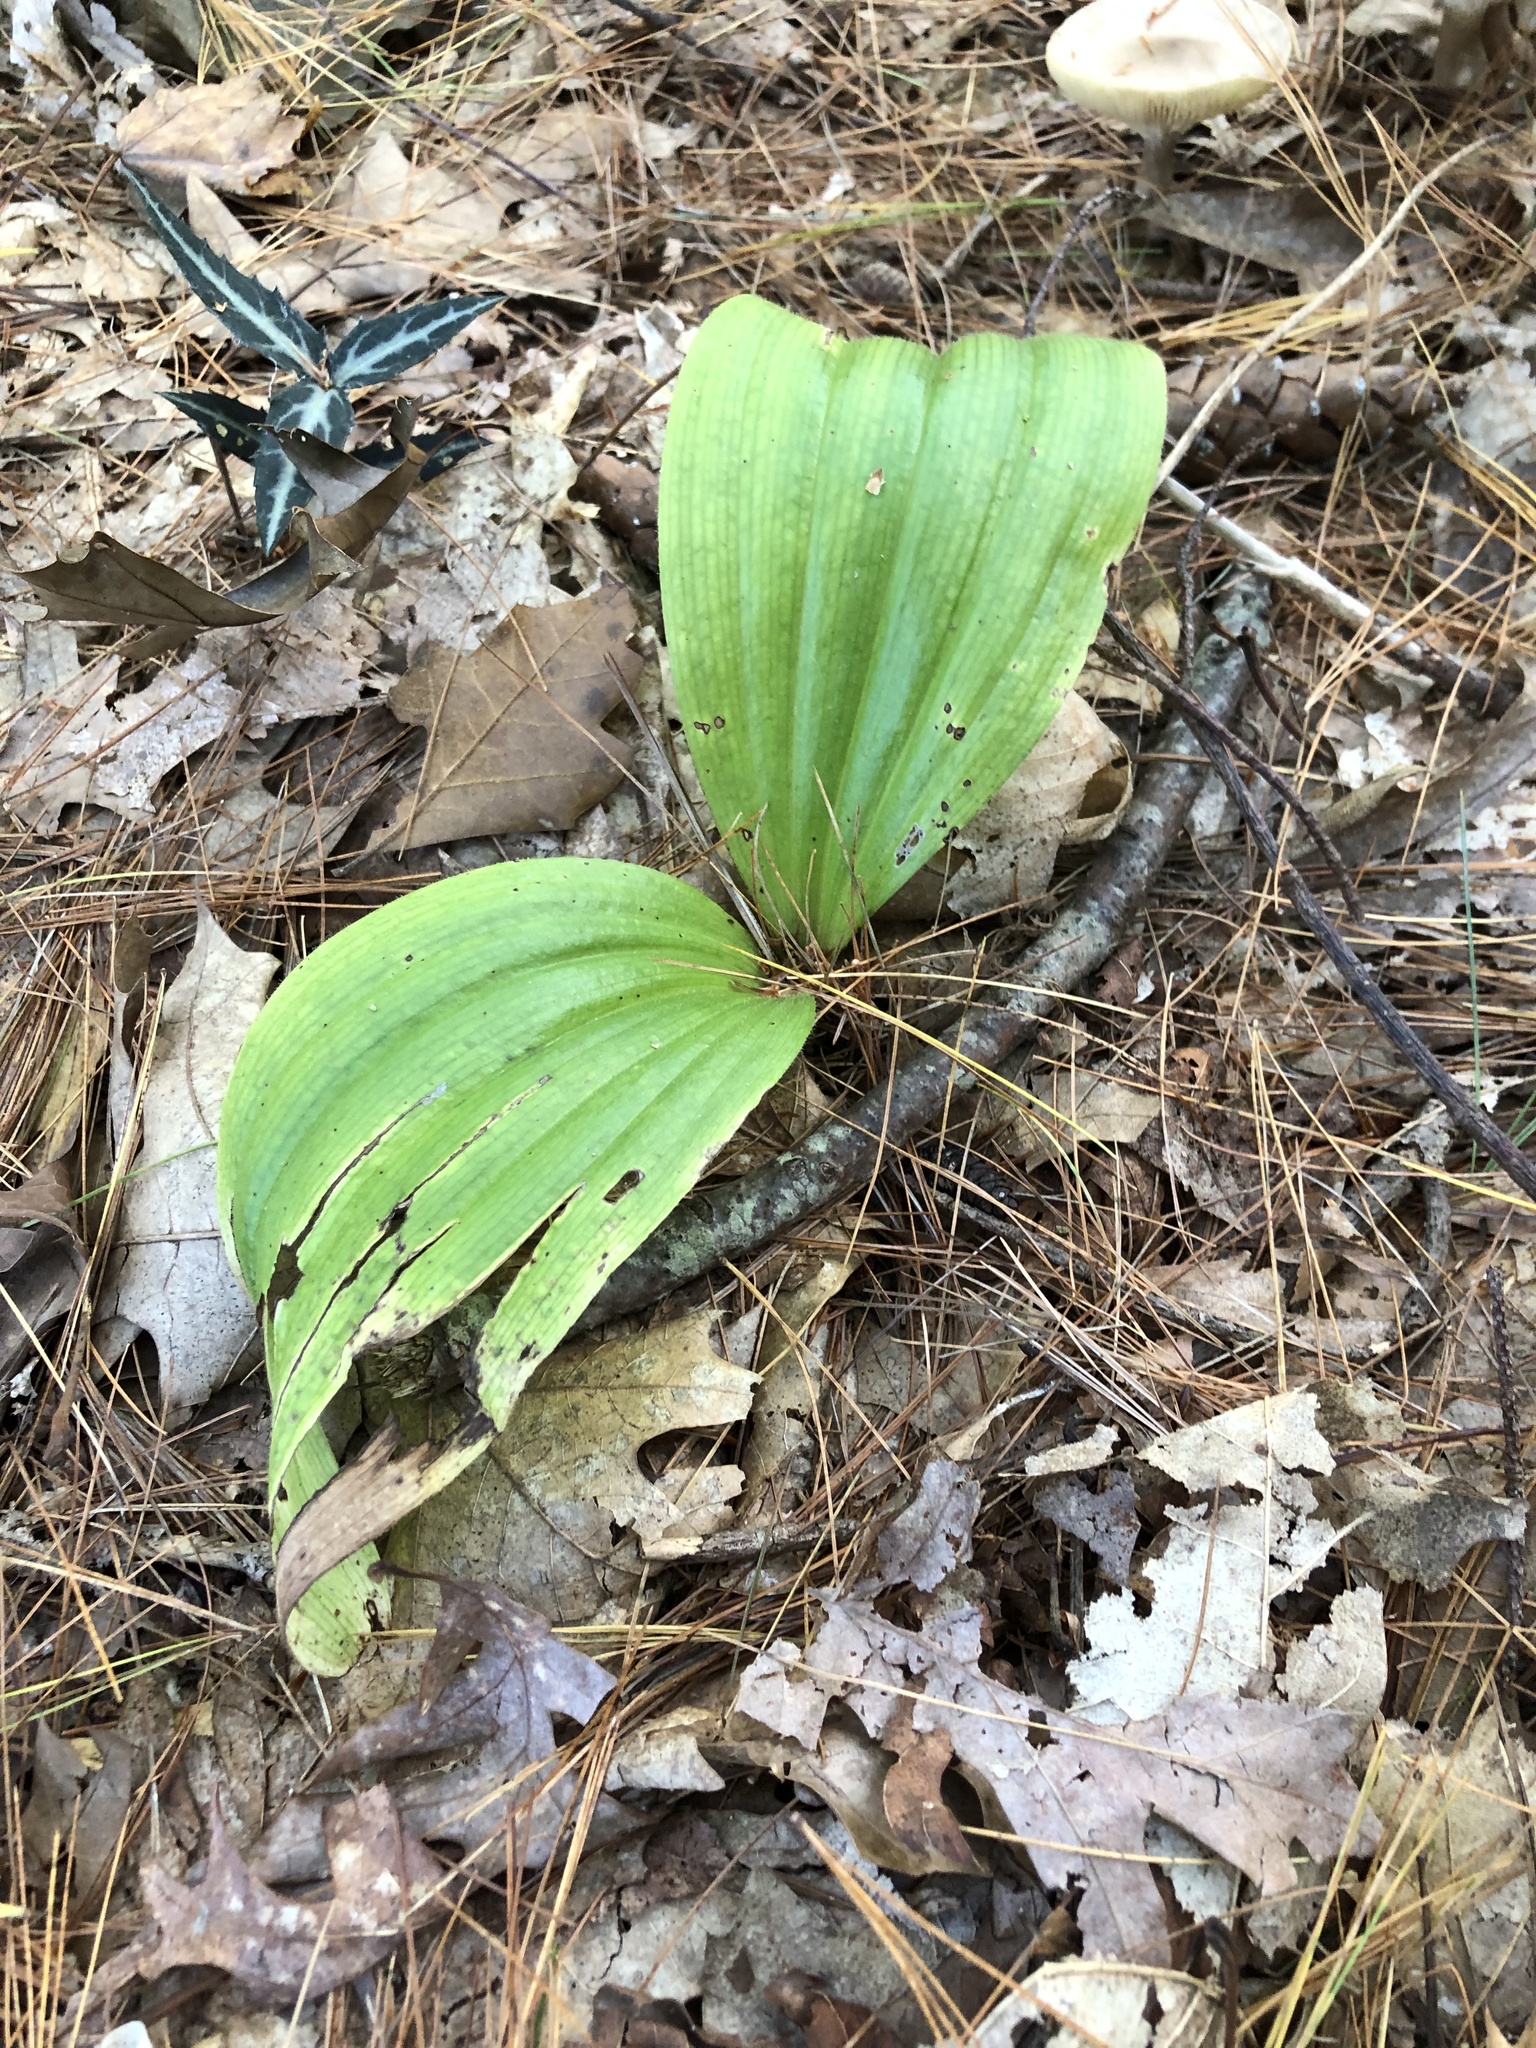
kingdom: Plantae
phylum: Tracheophyta
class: Liliopsida
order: Asparagales
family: Orchidaceae
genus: Cypripedium
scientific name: Cypripedium acaule
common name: Pink lady's-slipper
